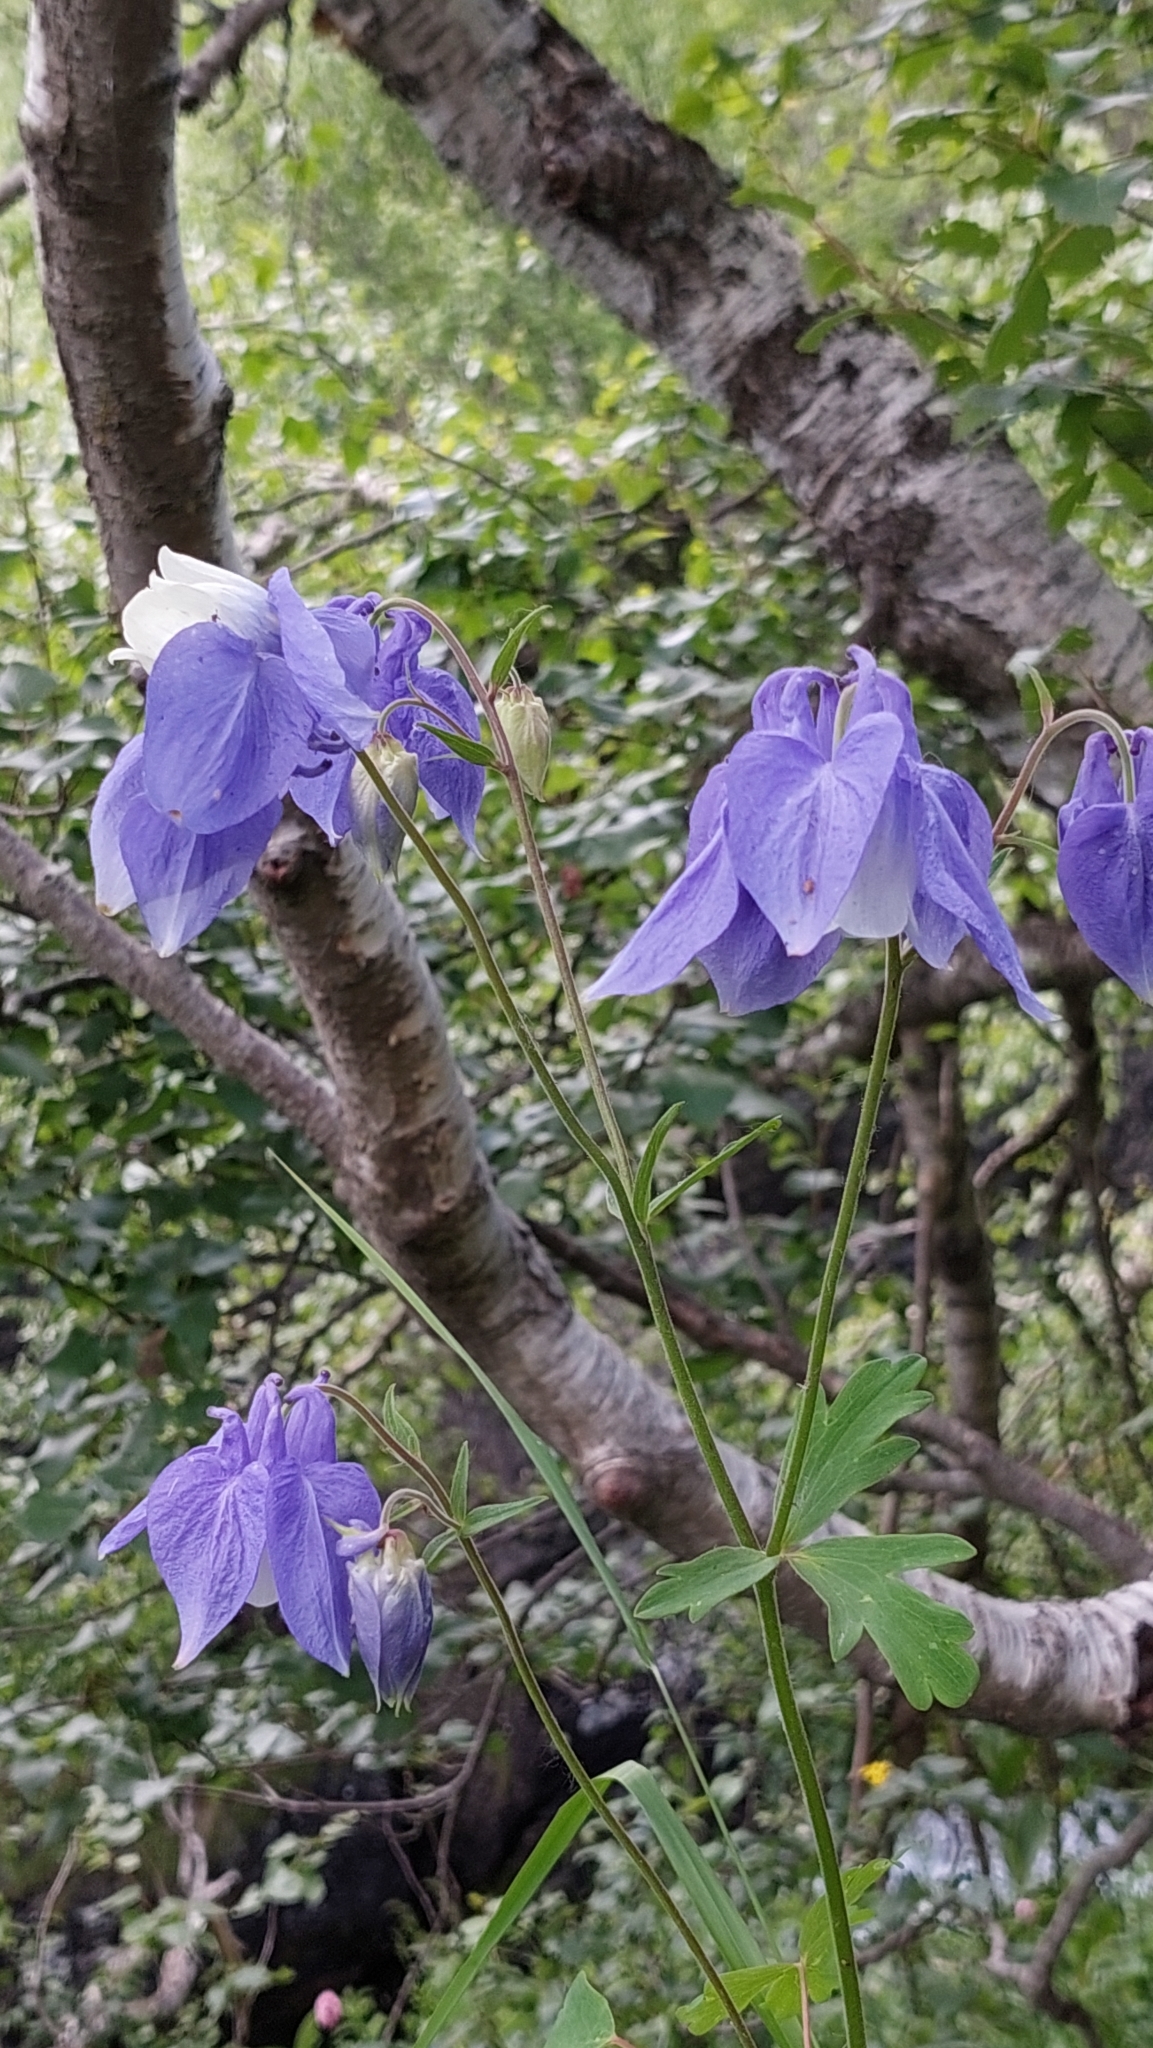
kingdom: Plantae
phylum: Tracheophyta
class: Magnoliopsida
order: Ranunculales
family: Ranunculaceae
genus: Aquilegia
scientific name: Aquilegia olympica
